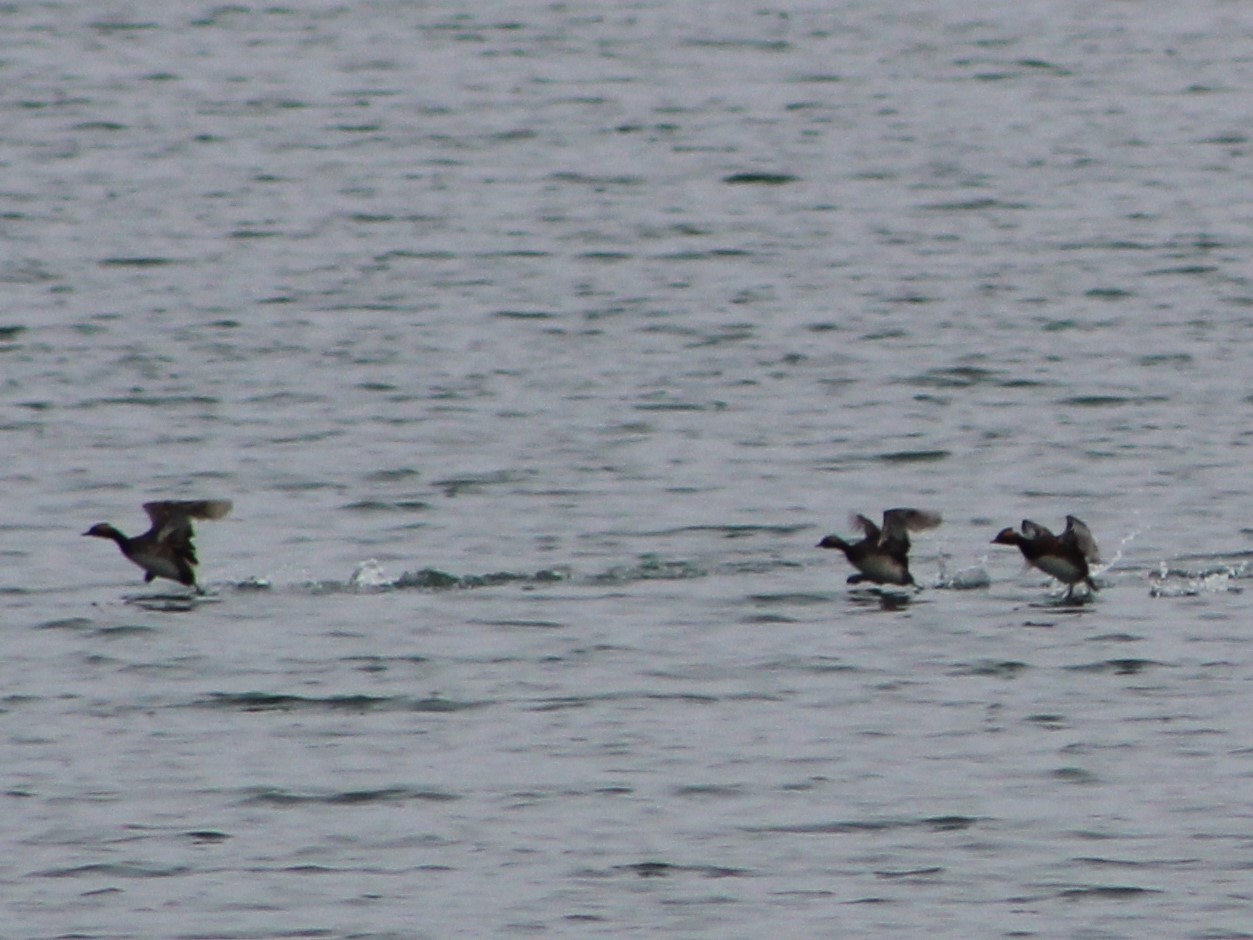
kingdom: Animalia
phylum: Chordata
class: Aves
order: Podicipediformes
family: Podicipedidae
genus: Podiceps
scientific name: Podiceps nigricollis
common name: Black-necked grebe
